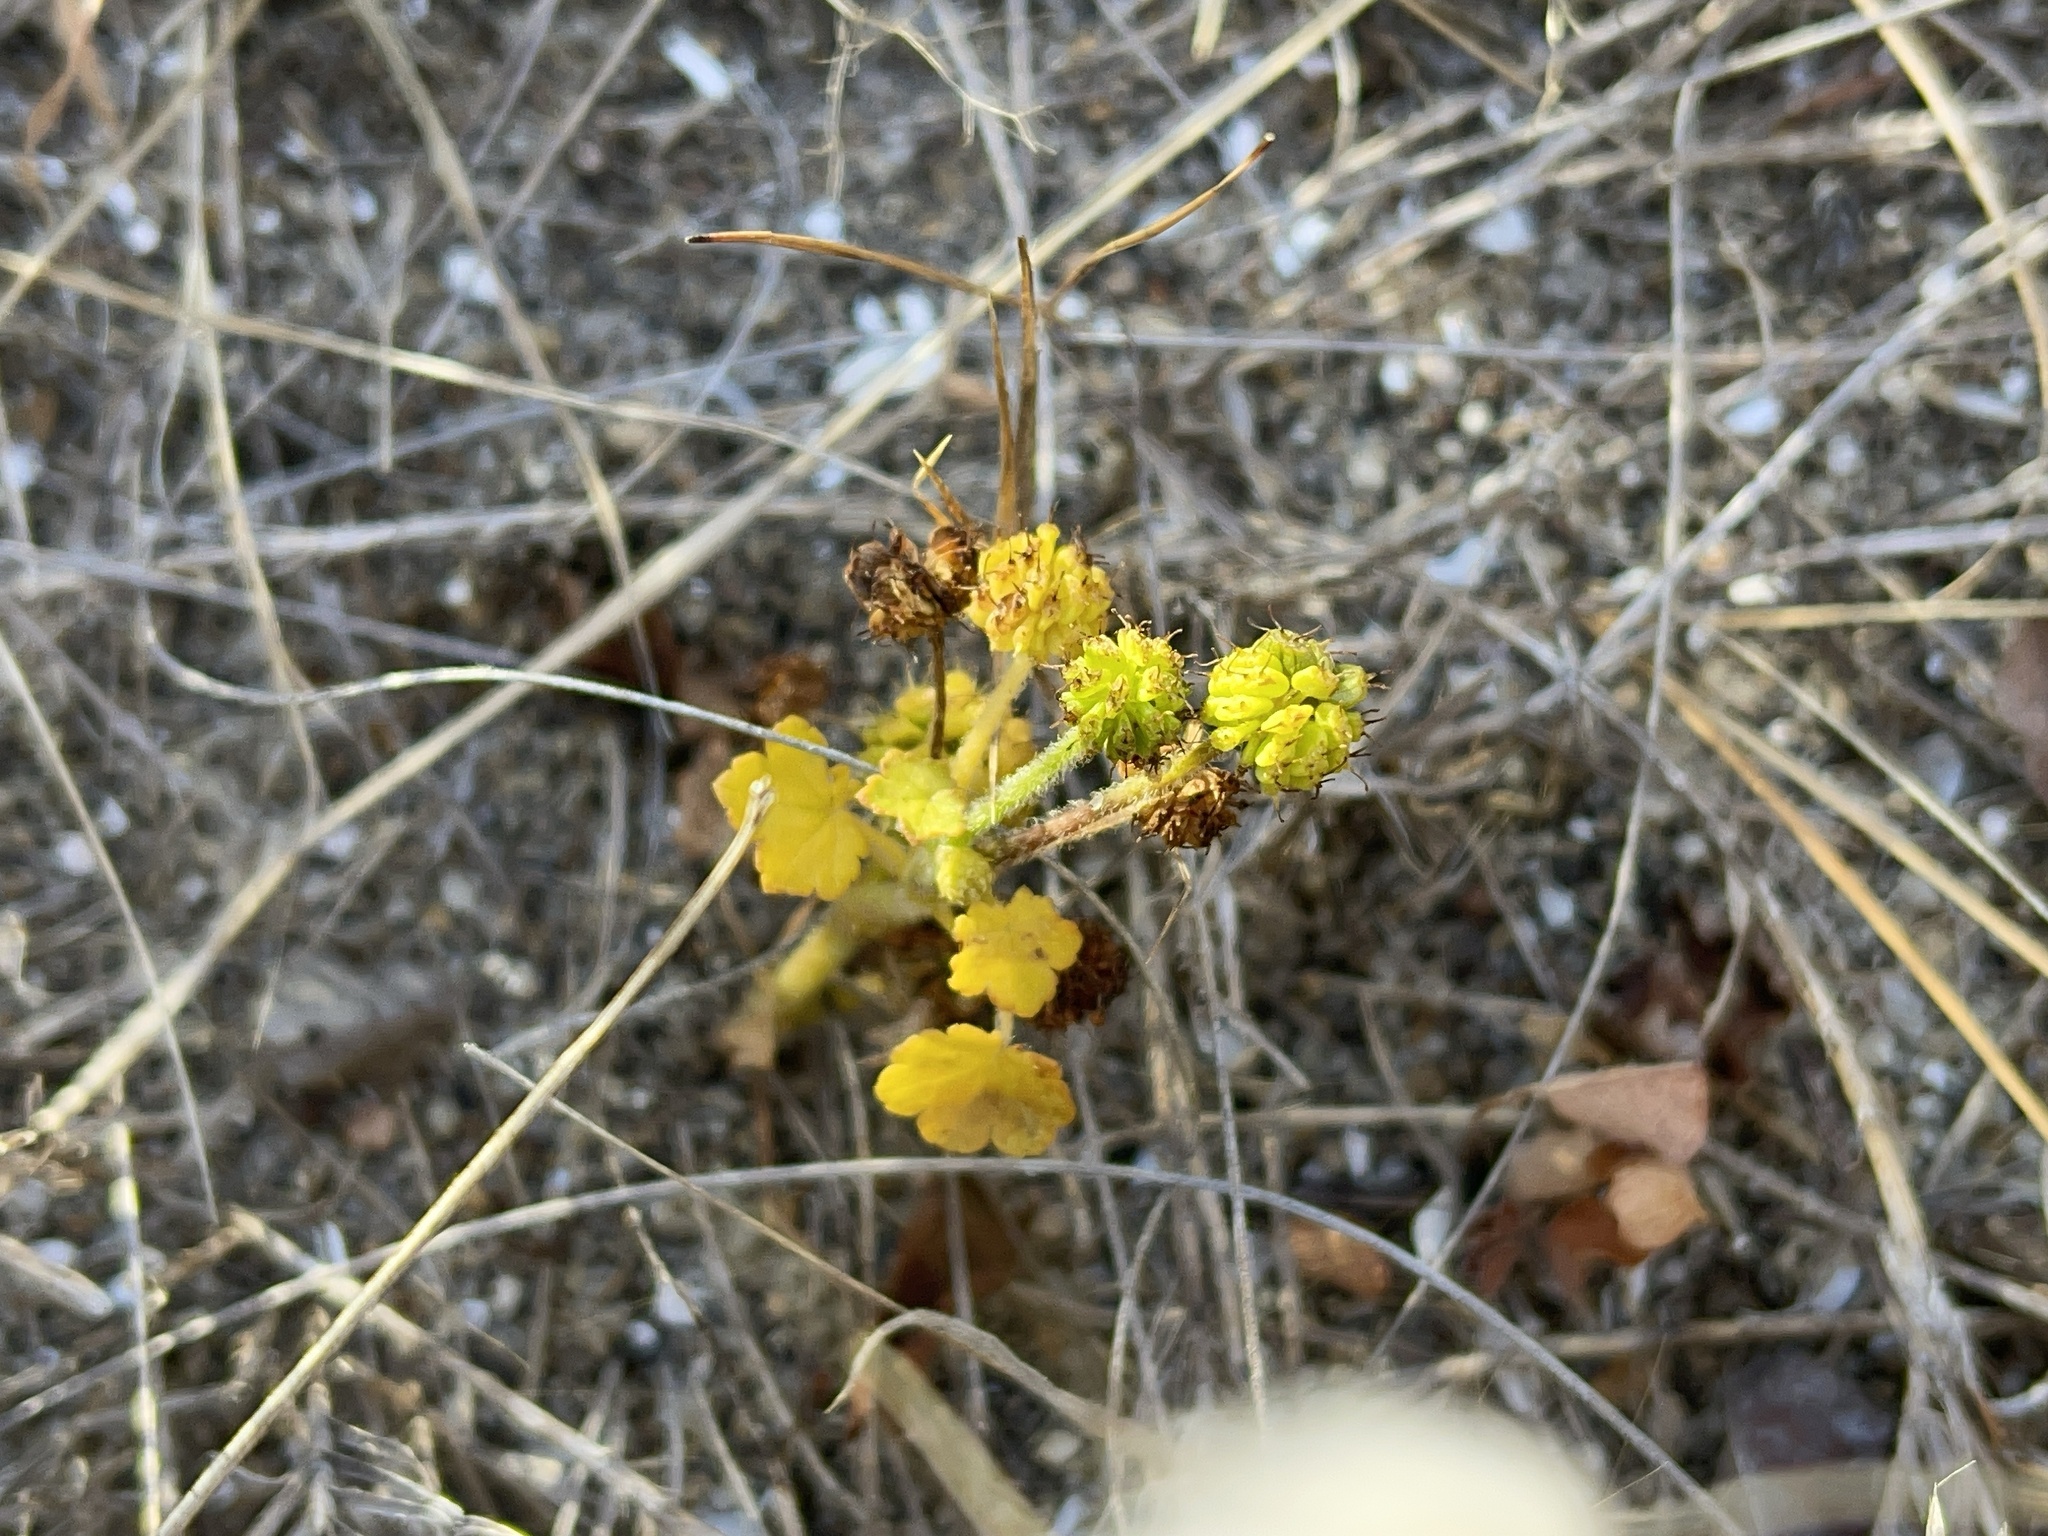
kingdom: Plantae
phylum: Tracheophyta
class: Magnoliopsida
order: Apiales
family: Araliaceae
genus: Hydrocotyle
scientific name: Hydrocotyle laxiflora
